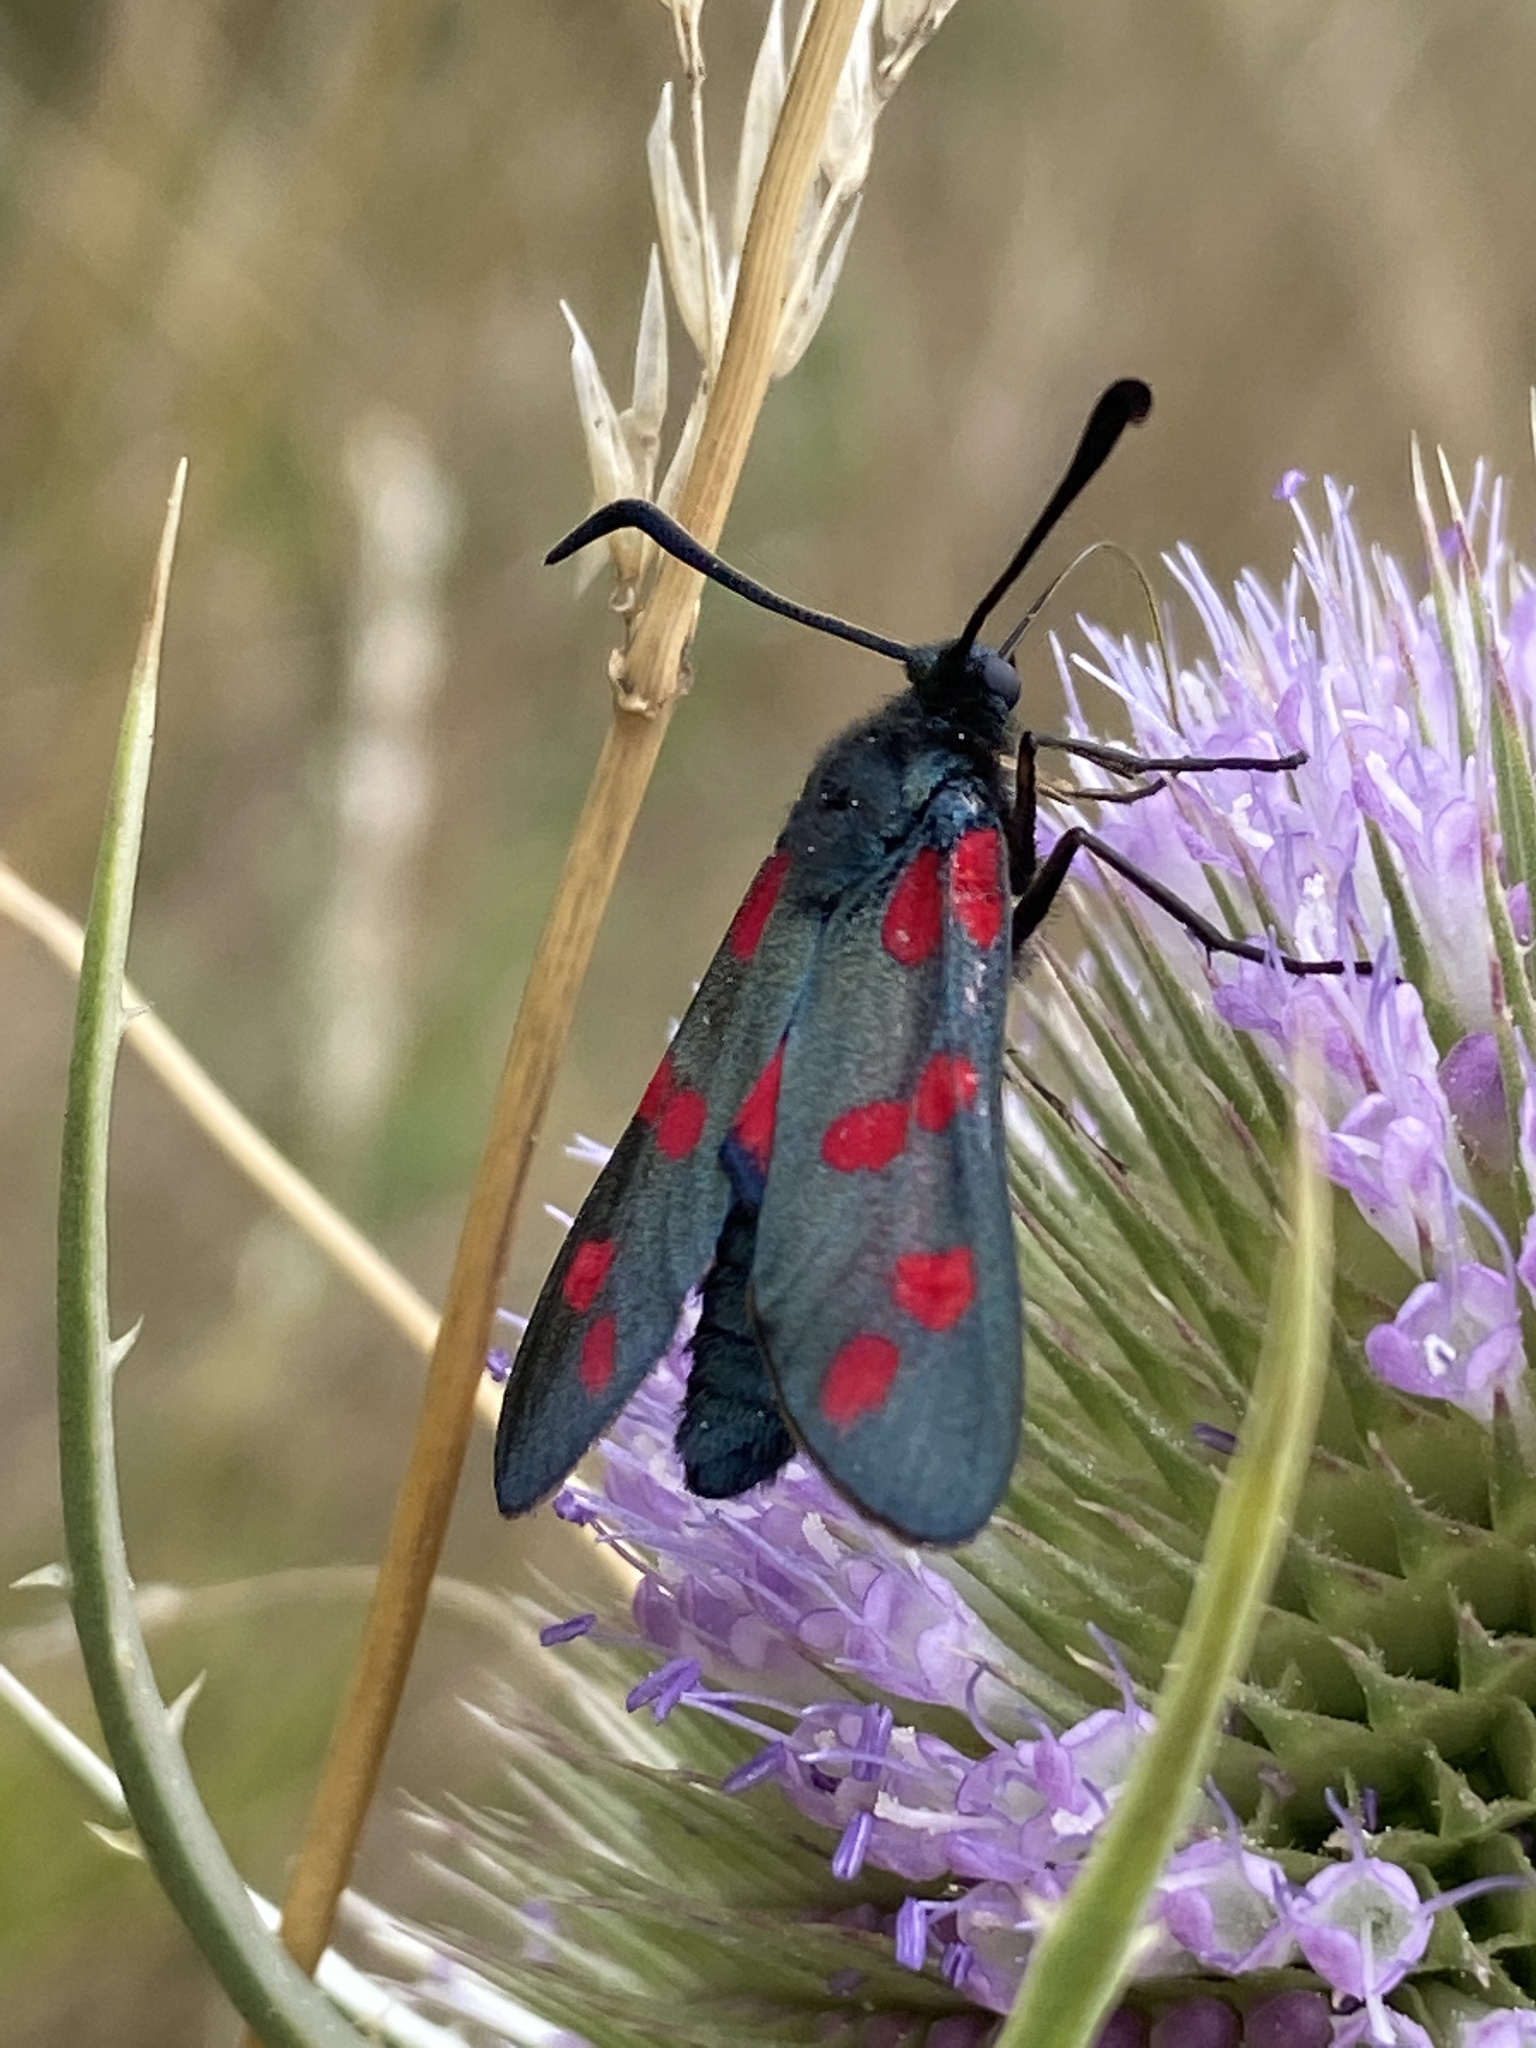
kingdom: Animalia
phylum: Arthropoda
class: Insecta
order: Lepidoptera
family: Zygaenidae
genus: Zygaena
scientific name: Zygaena filipendulae
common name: Six-spot burnet
